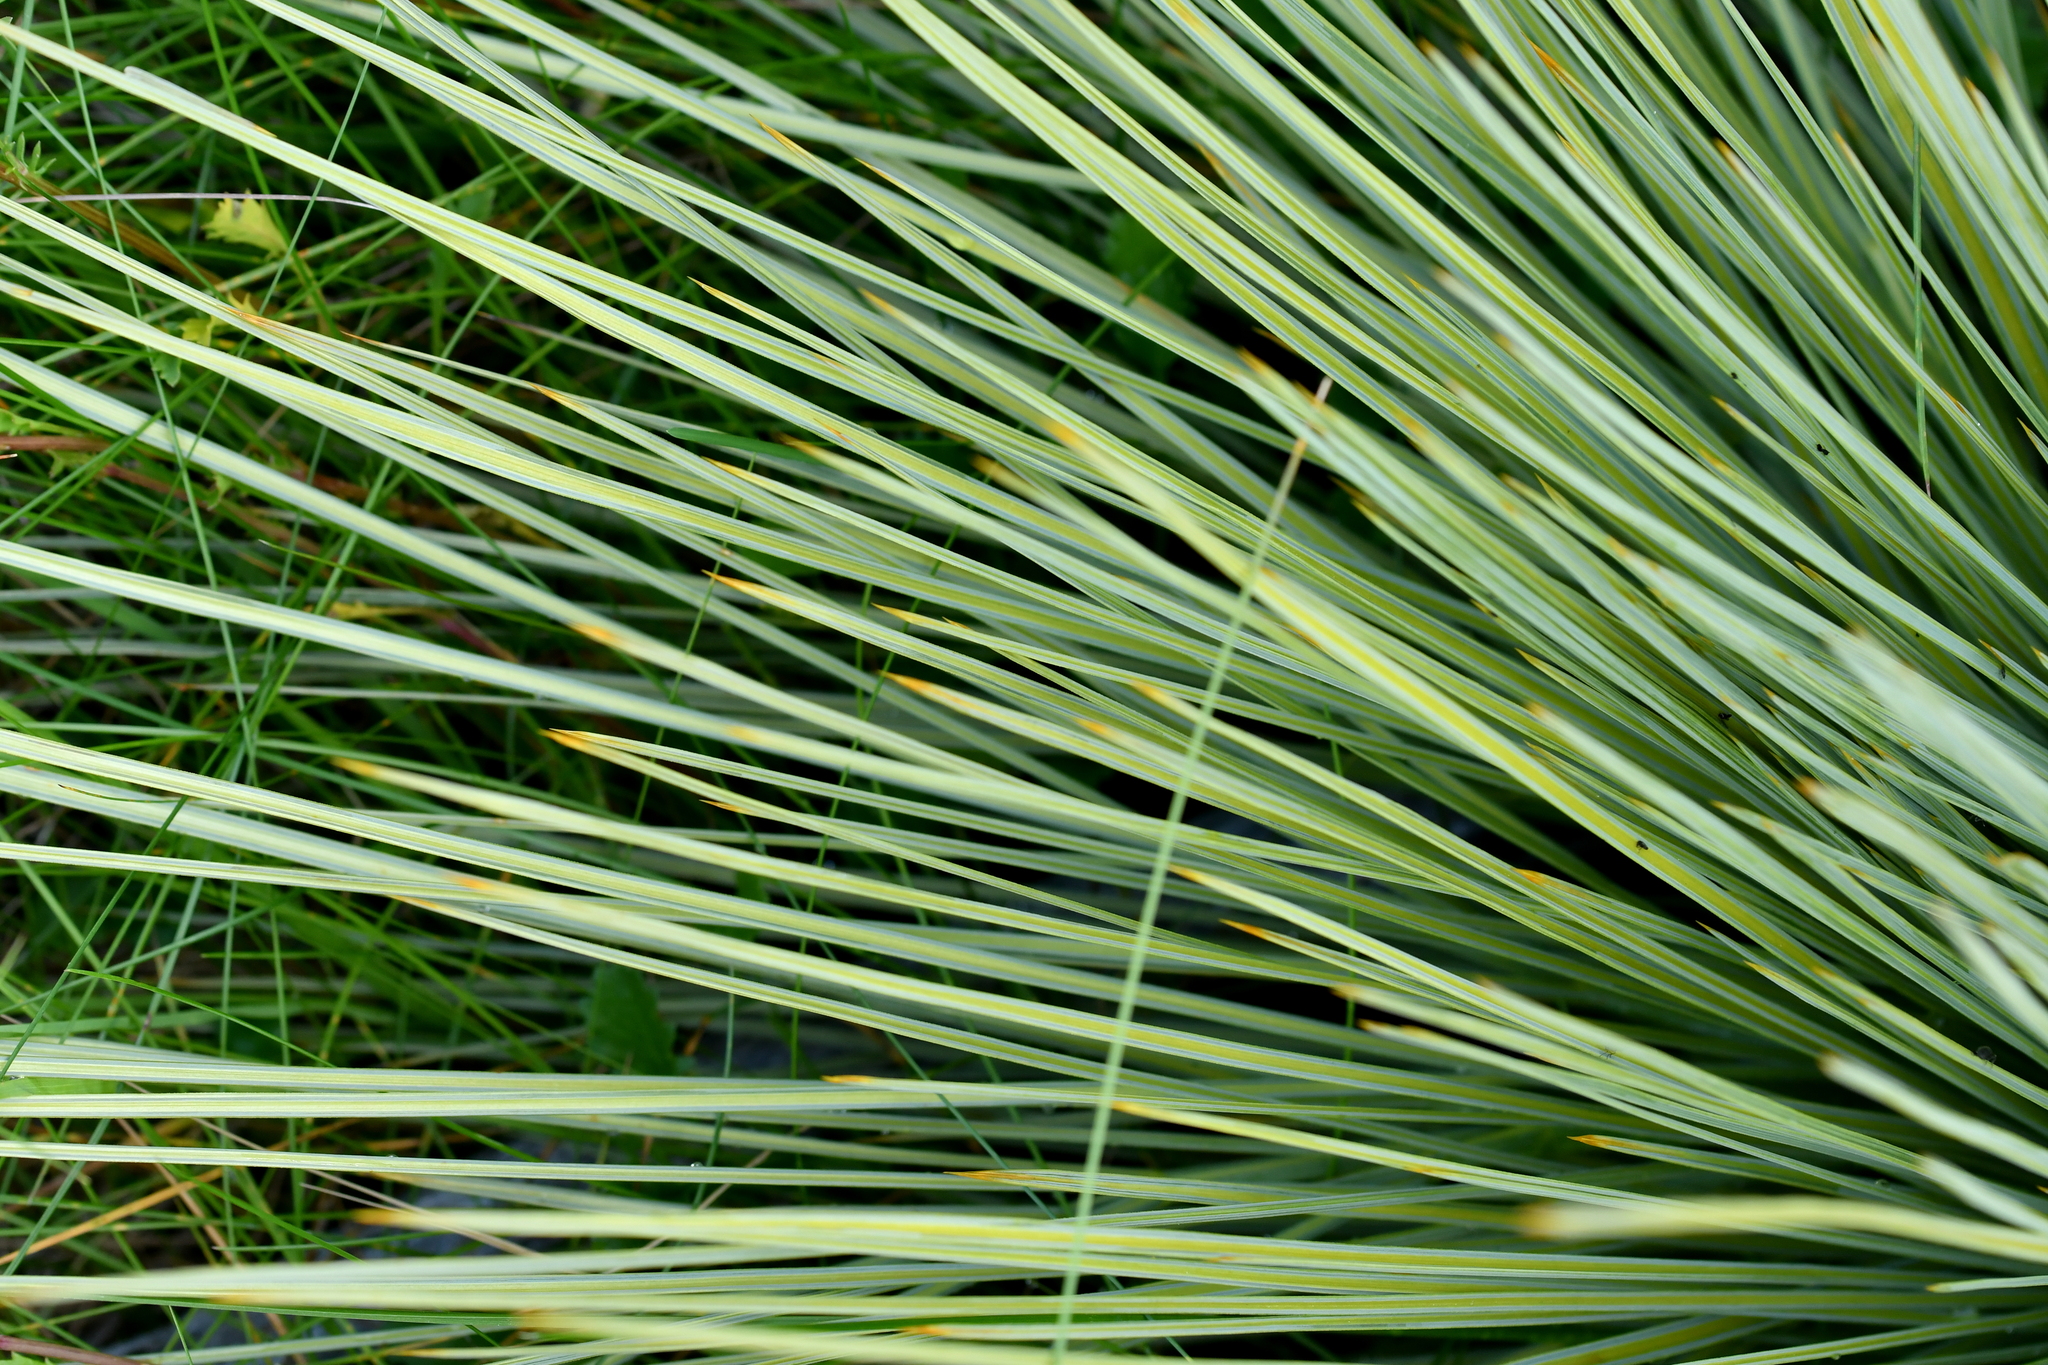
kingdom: Plantae
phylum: Tracheophyta
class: Magnoliopsida
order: Apiales
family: Apiaceae
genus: Aciphylla
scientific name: Aciphylla subflabellata
